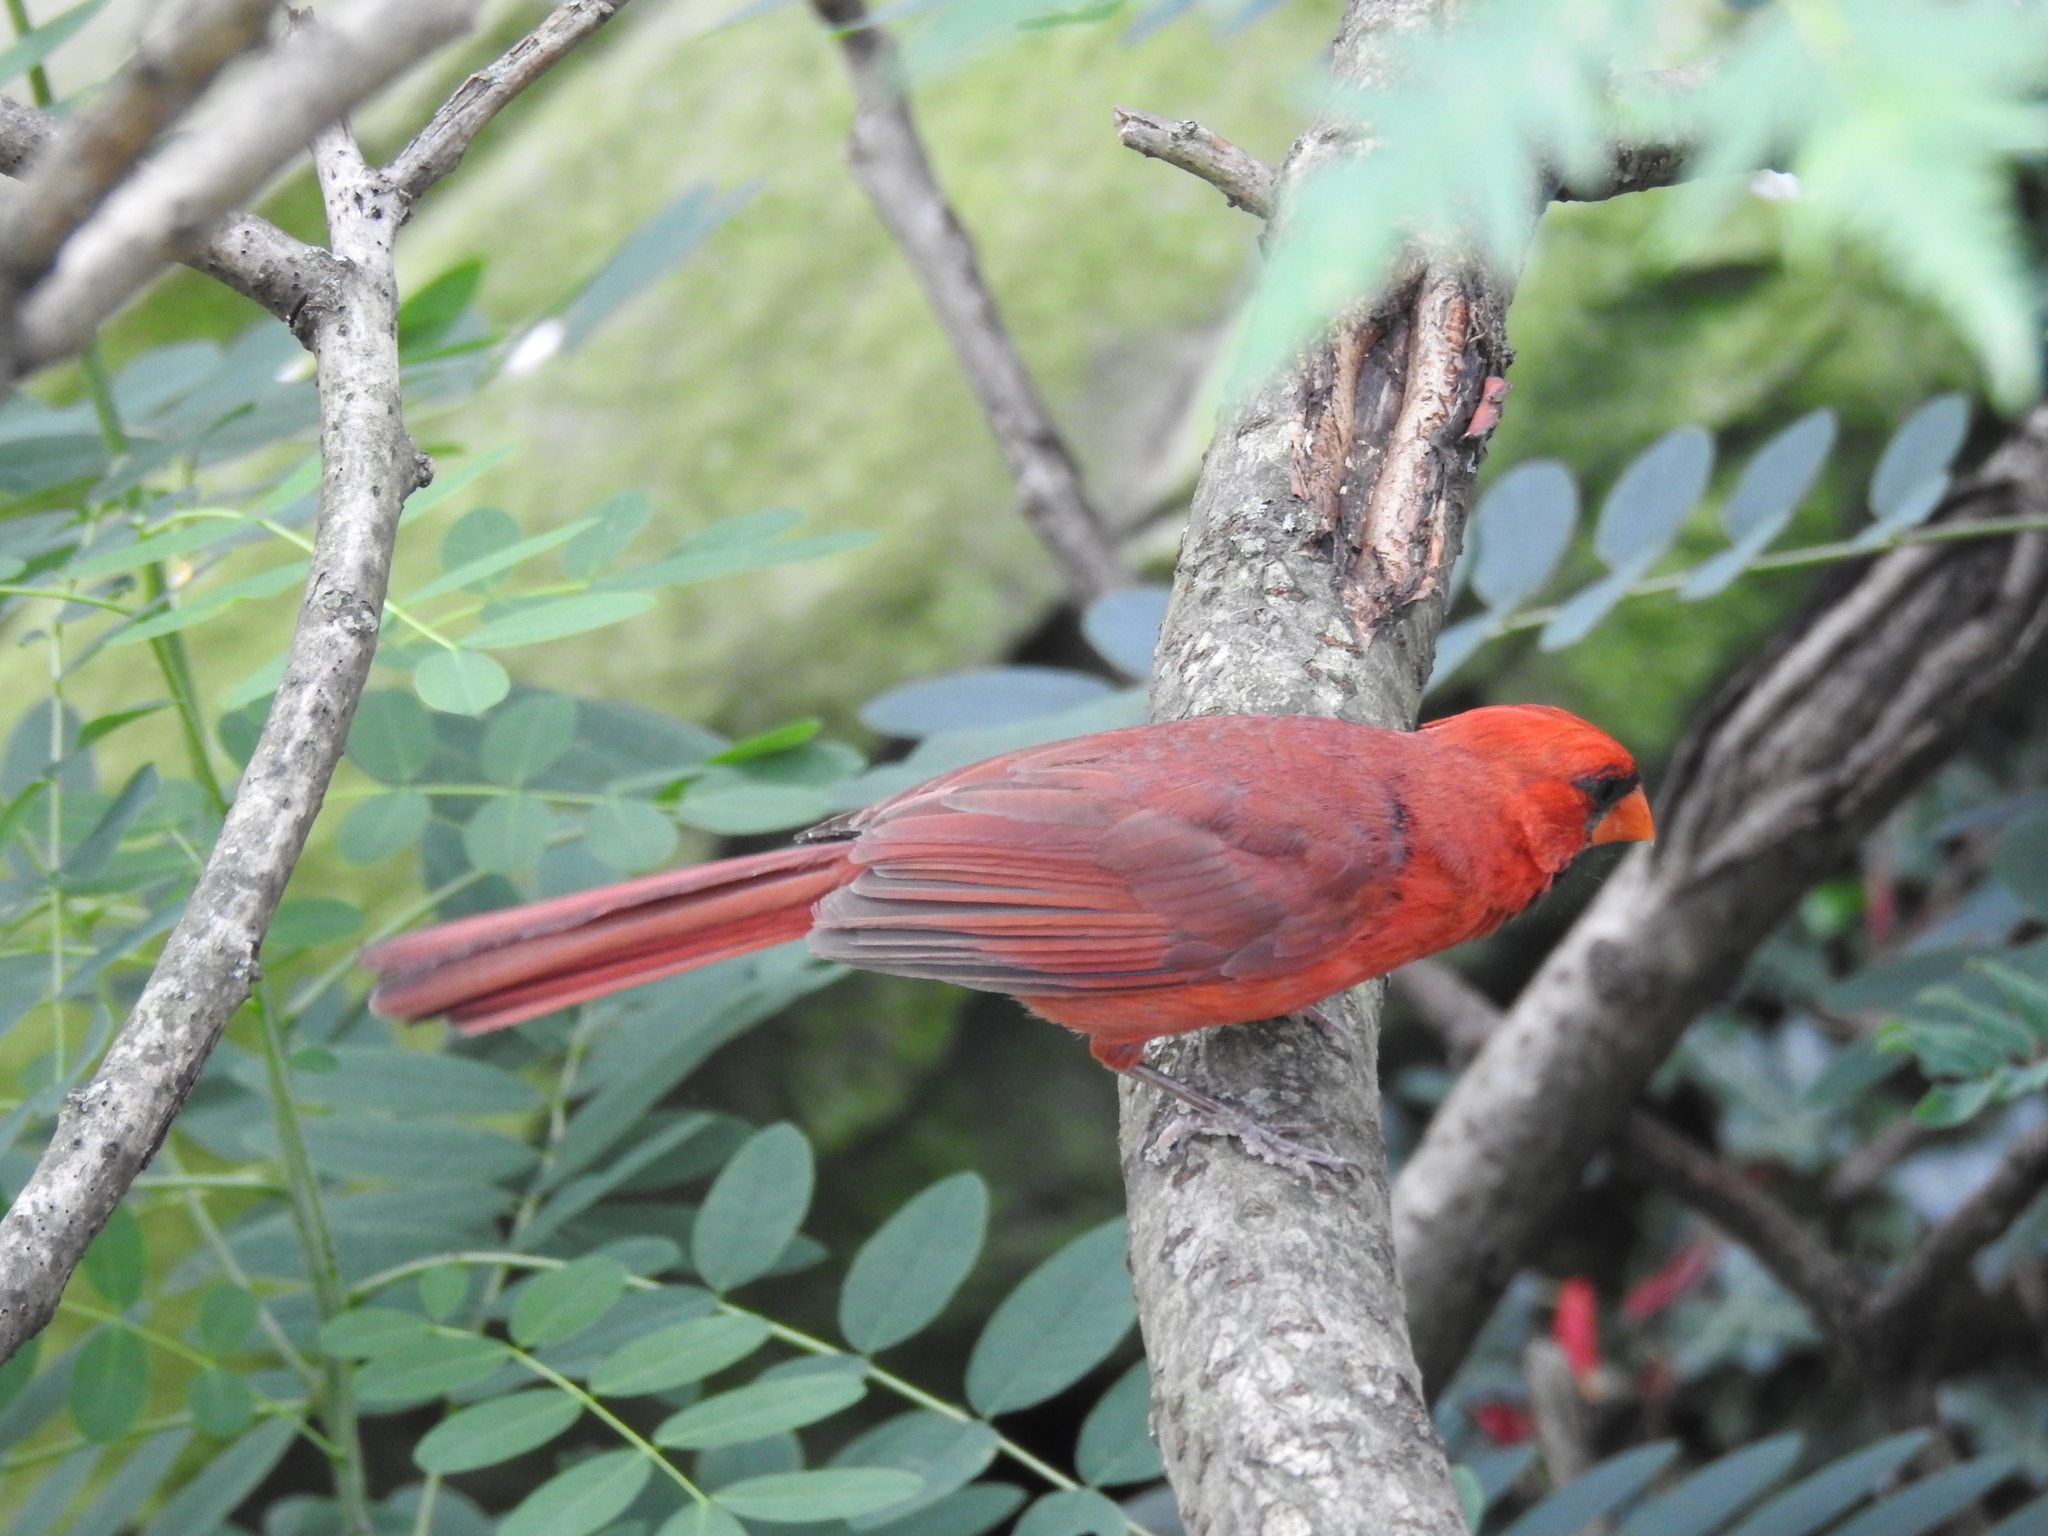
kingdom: Animalia
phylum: Chordata
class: Aves
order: Passeriformes
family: Cardinalidae
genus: Cardinalis
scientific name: Cardinalis cardinalis
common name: Northern cardinal
